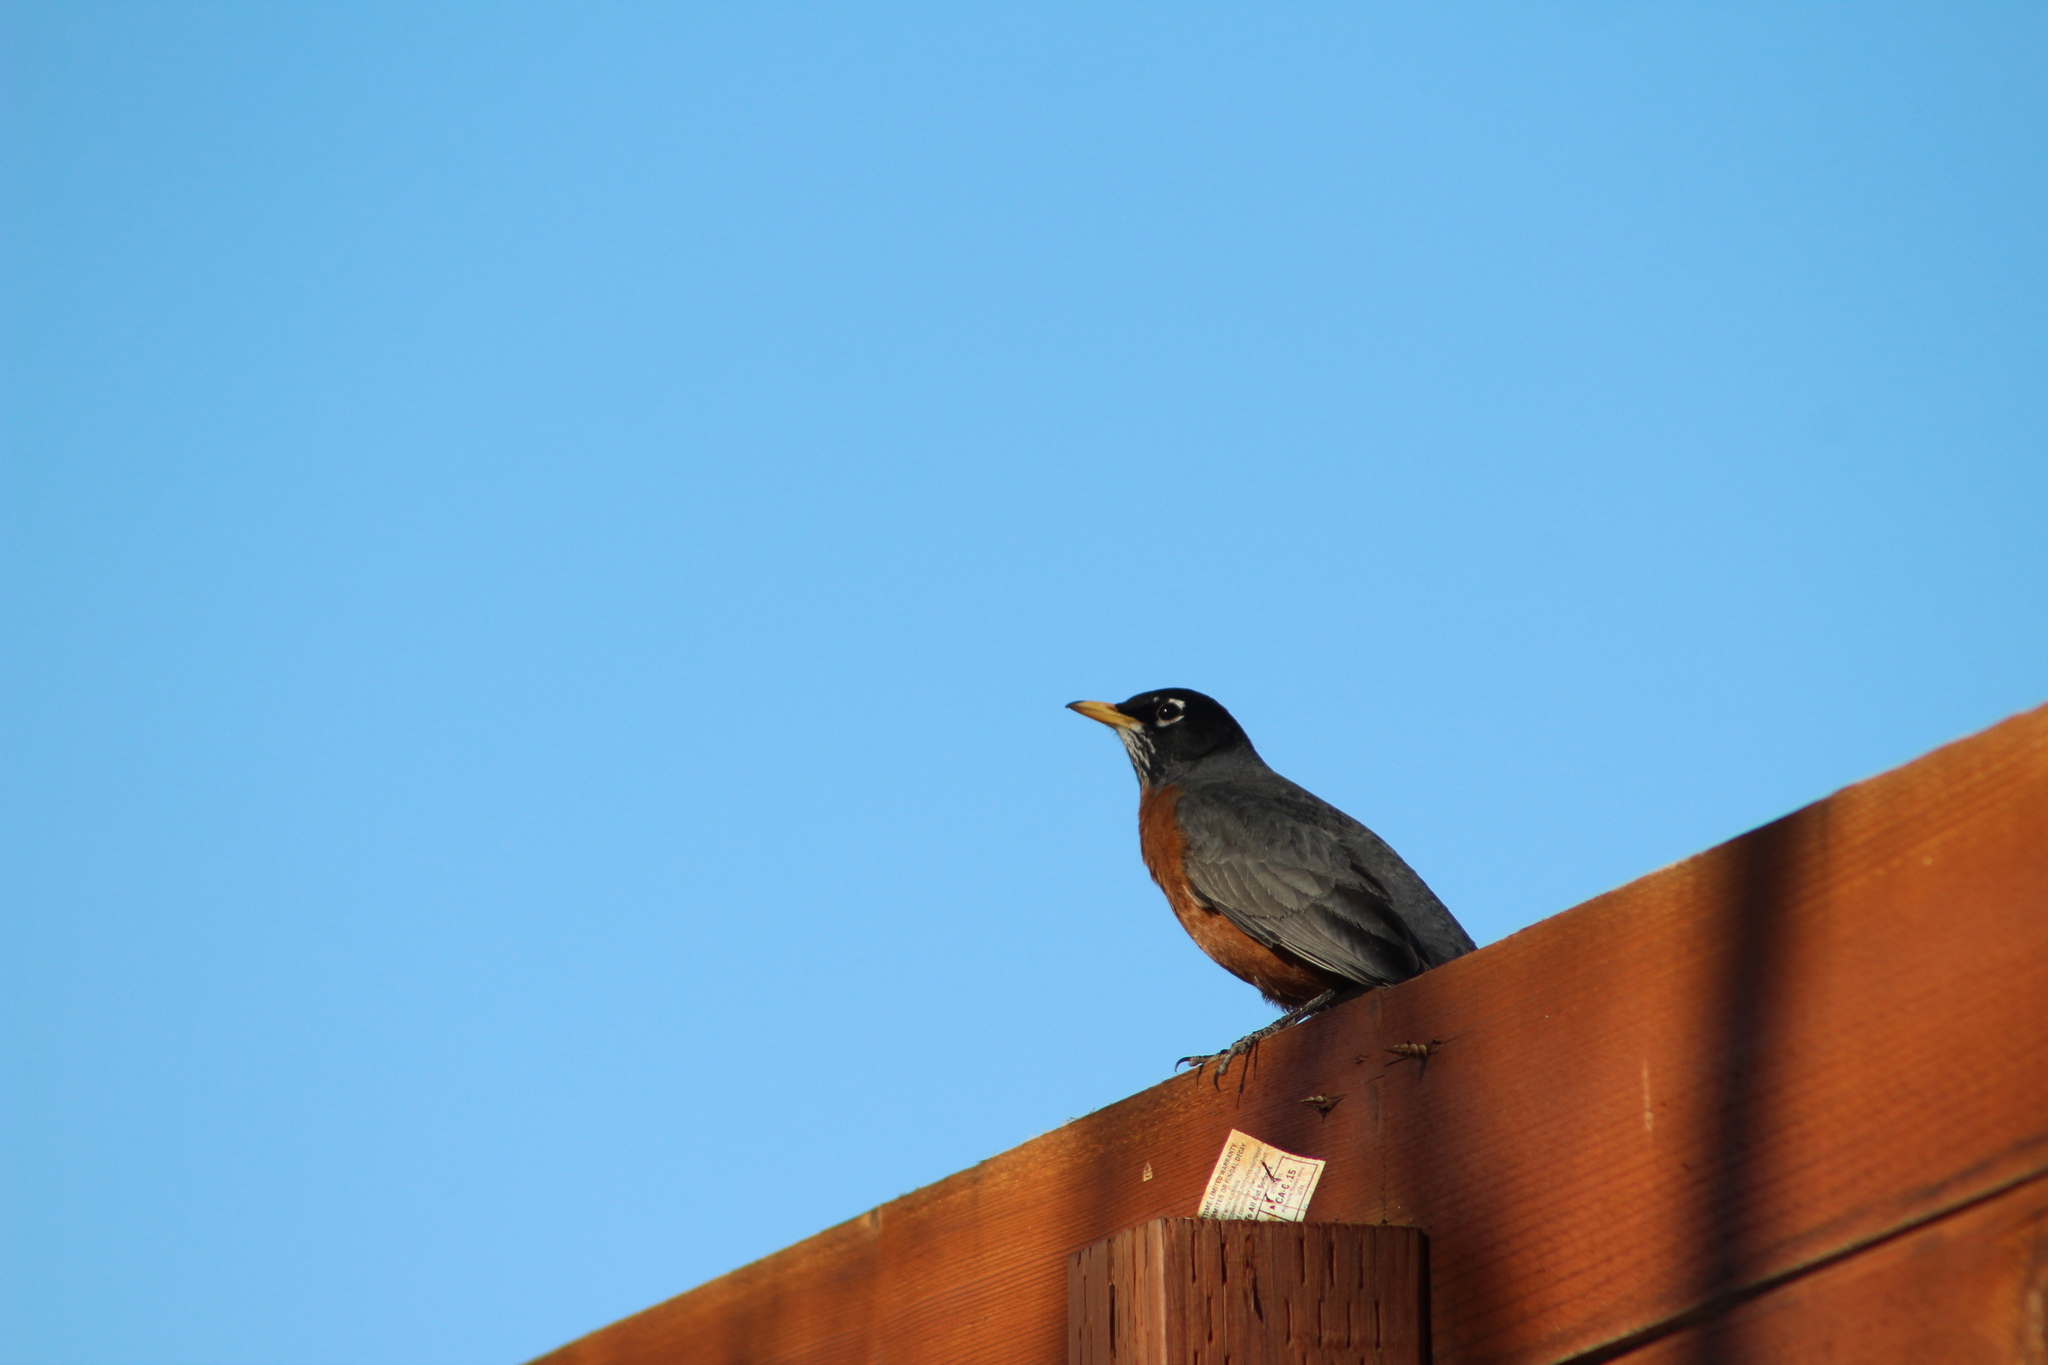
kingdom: Animalia
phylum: Chordata
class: Aves
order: Passeriformes
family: Turdidae
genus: Turdus
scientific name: Turdus migratorius
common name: American robin
